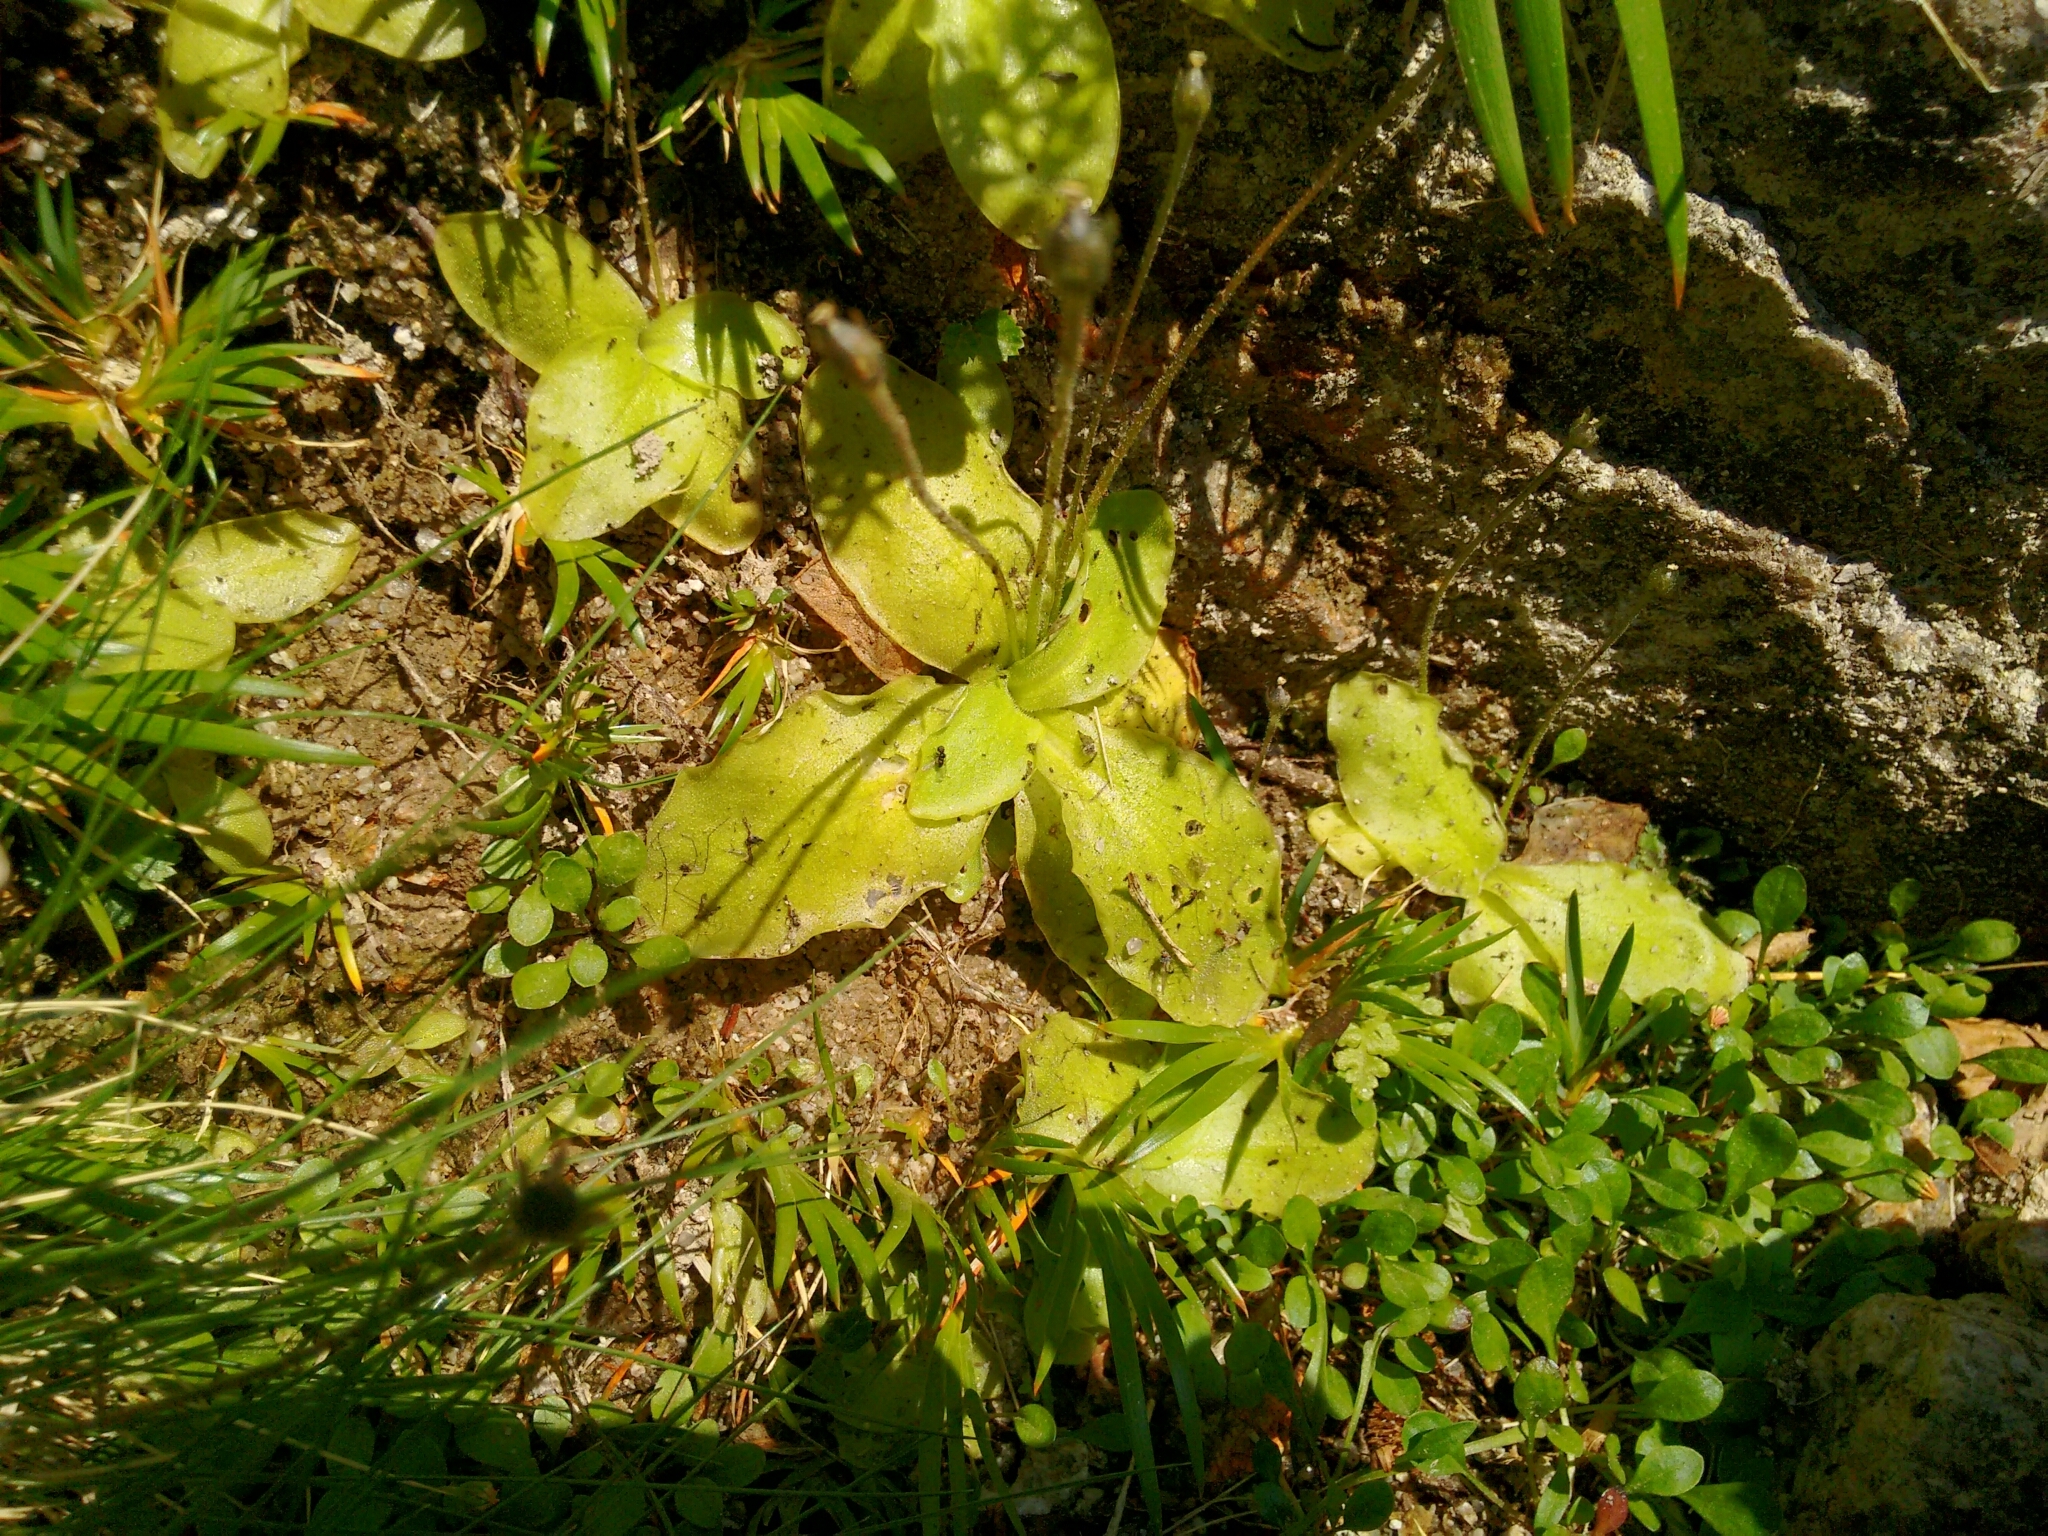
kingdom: Plantae
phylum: Tracheophyta
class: Magnoliopsida
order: Lamiales
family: Lentibulariaceae
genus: Pinguicula
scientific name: Pinguicula corsica
